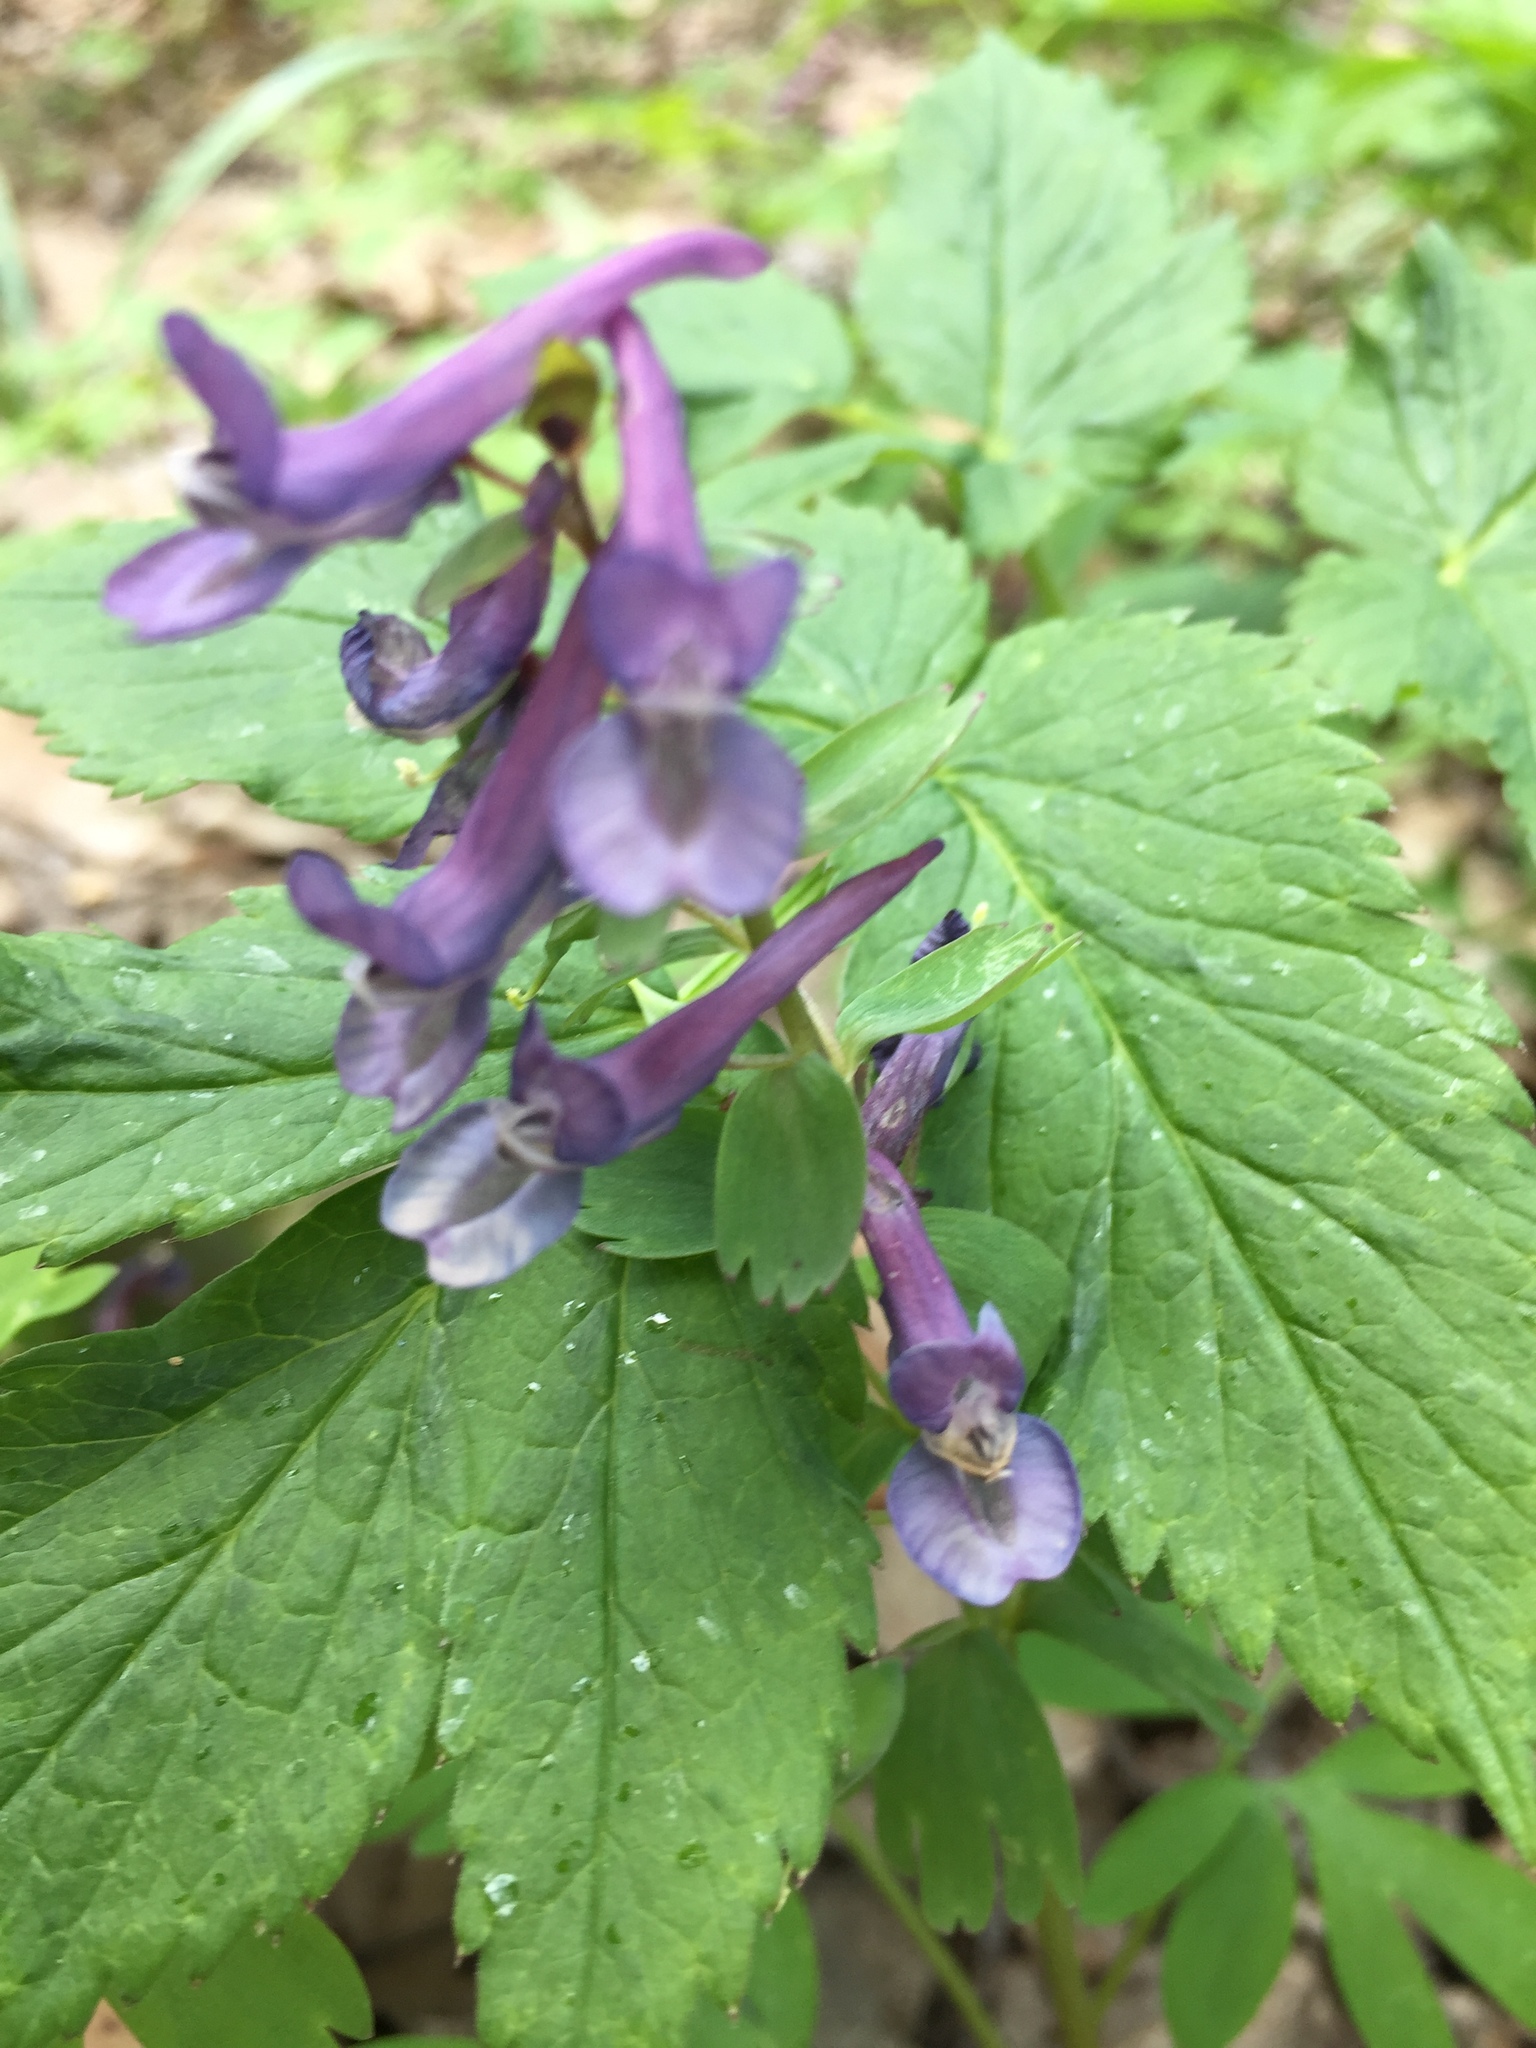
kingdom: Plantae
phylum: Tracheophyta
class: Magnoliopsida
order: Ranunculales
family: Papaveraceae
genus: Corydalis
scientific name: Corydalis solida
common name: Bird-in-a-bush
